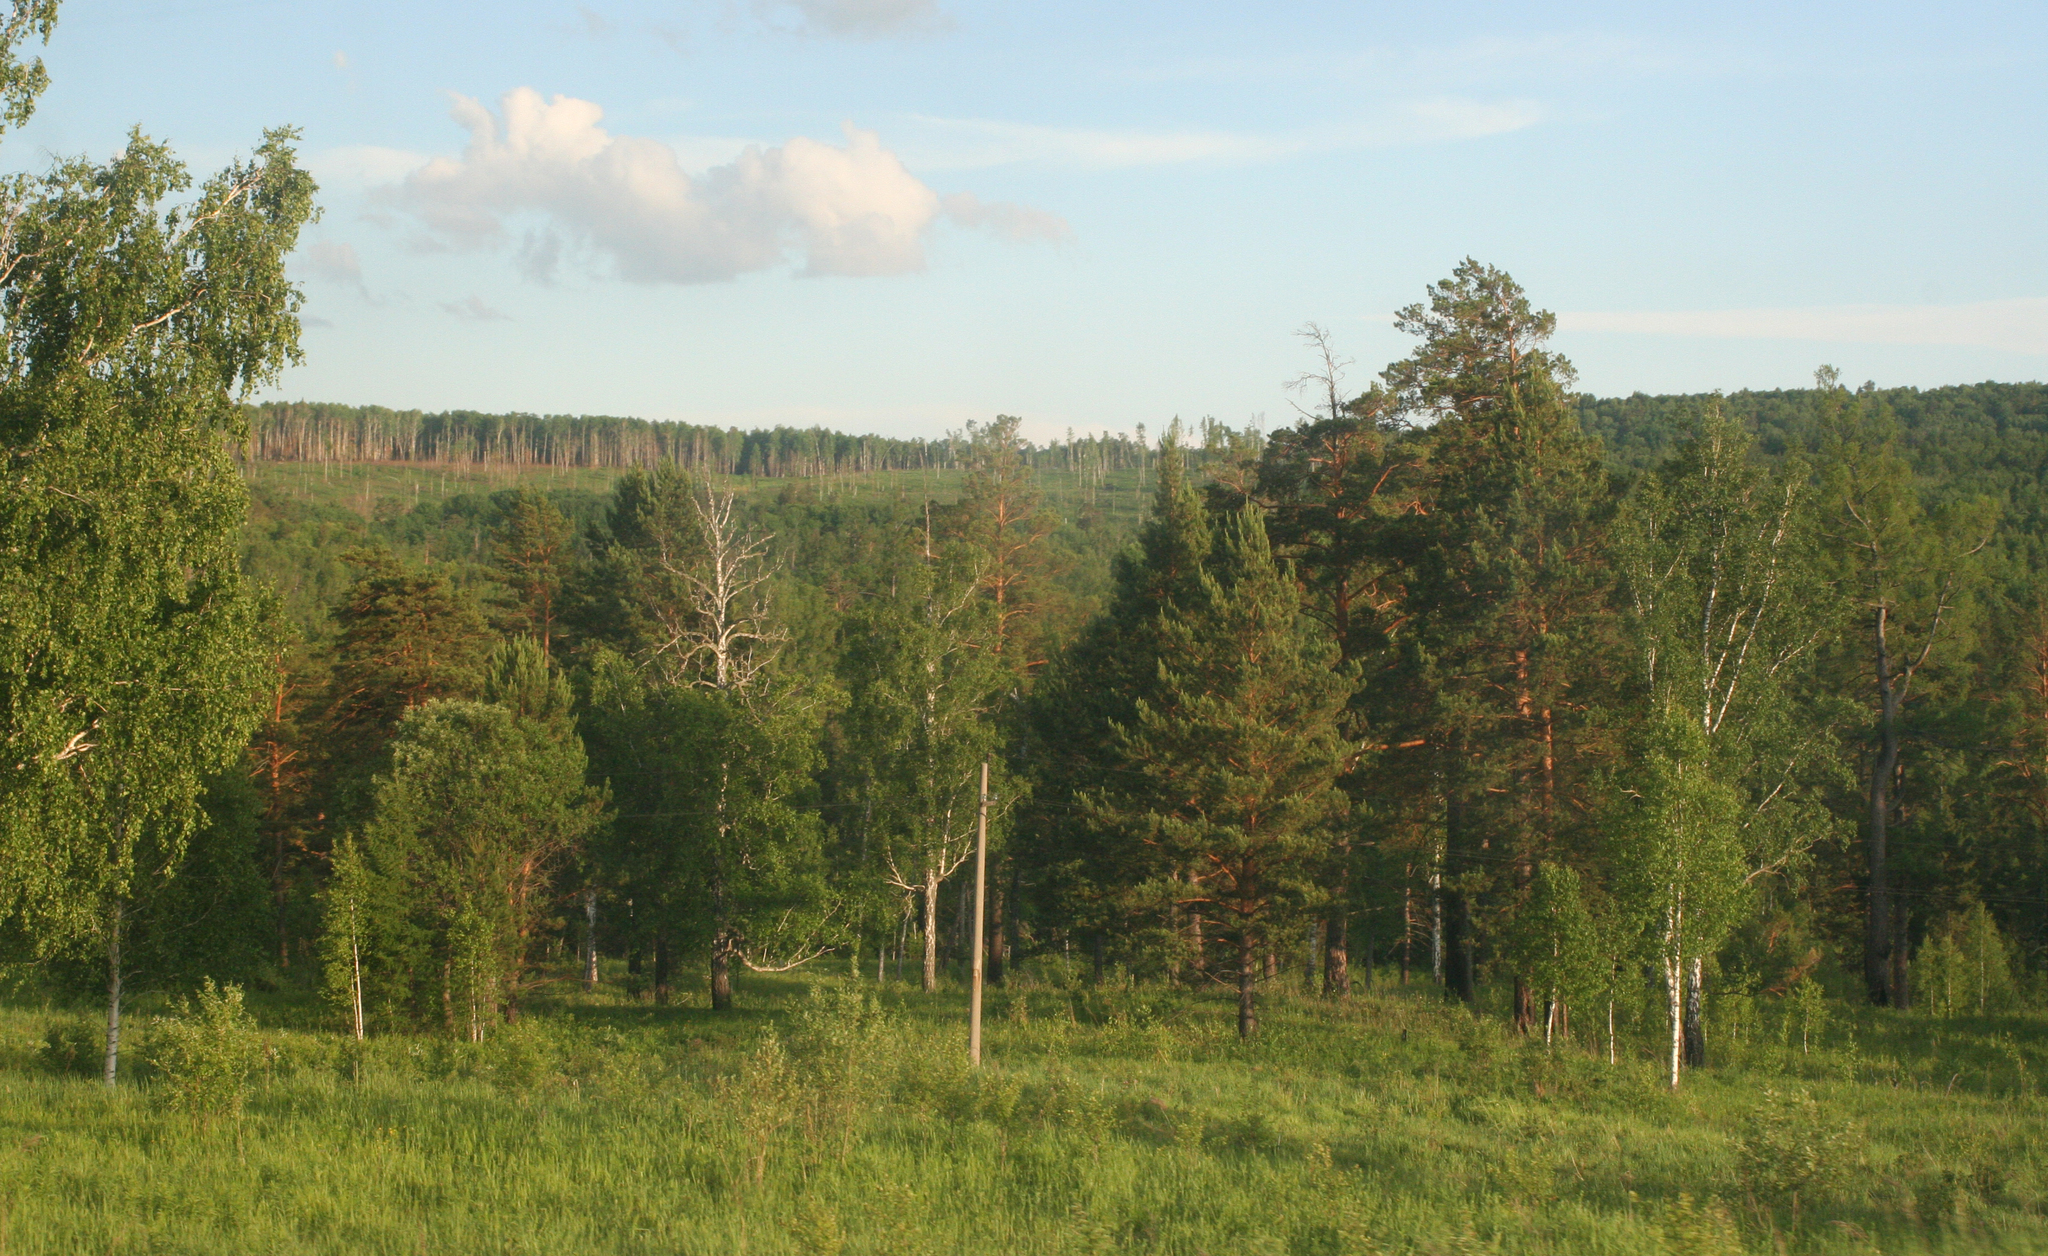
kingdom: Plantae
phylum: Tracheophyta
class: Pinopsida
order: Pinales
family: Pinaceae
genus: Pinus
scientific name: Pinus sylvestris
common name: Scots pine
